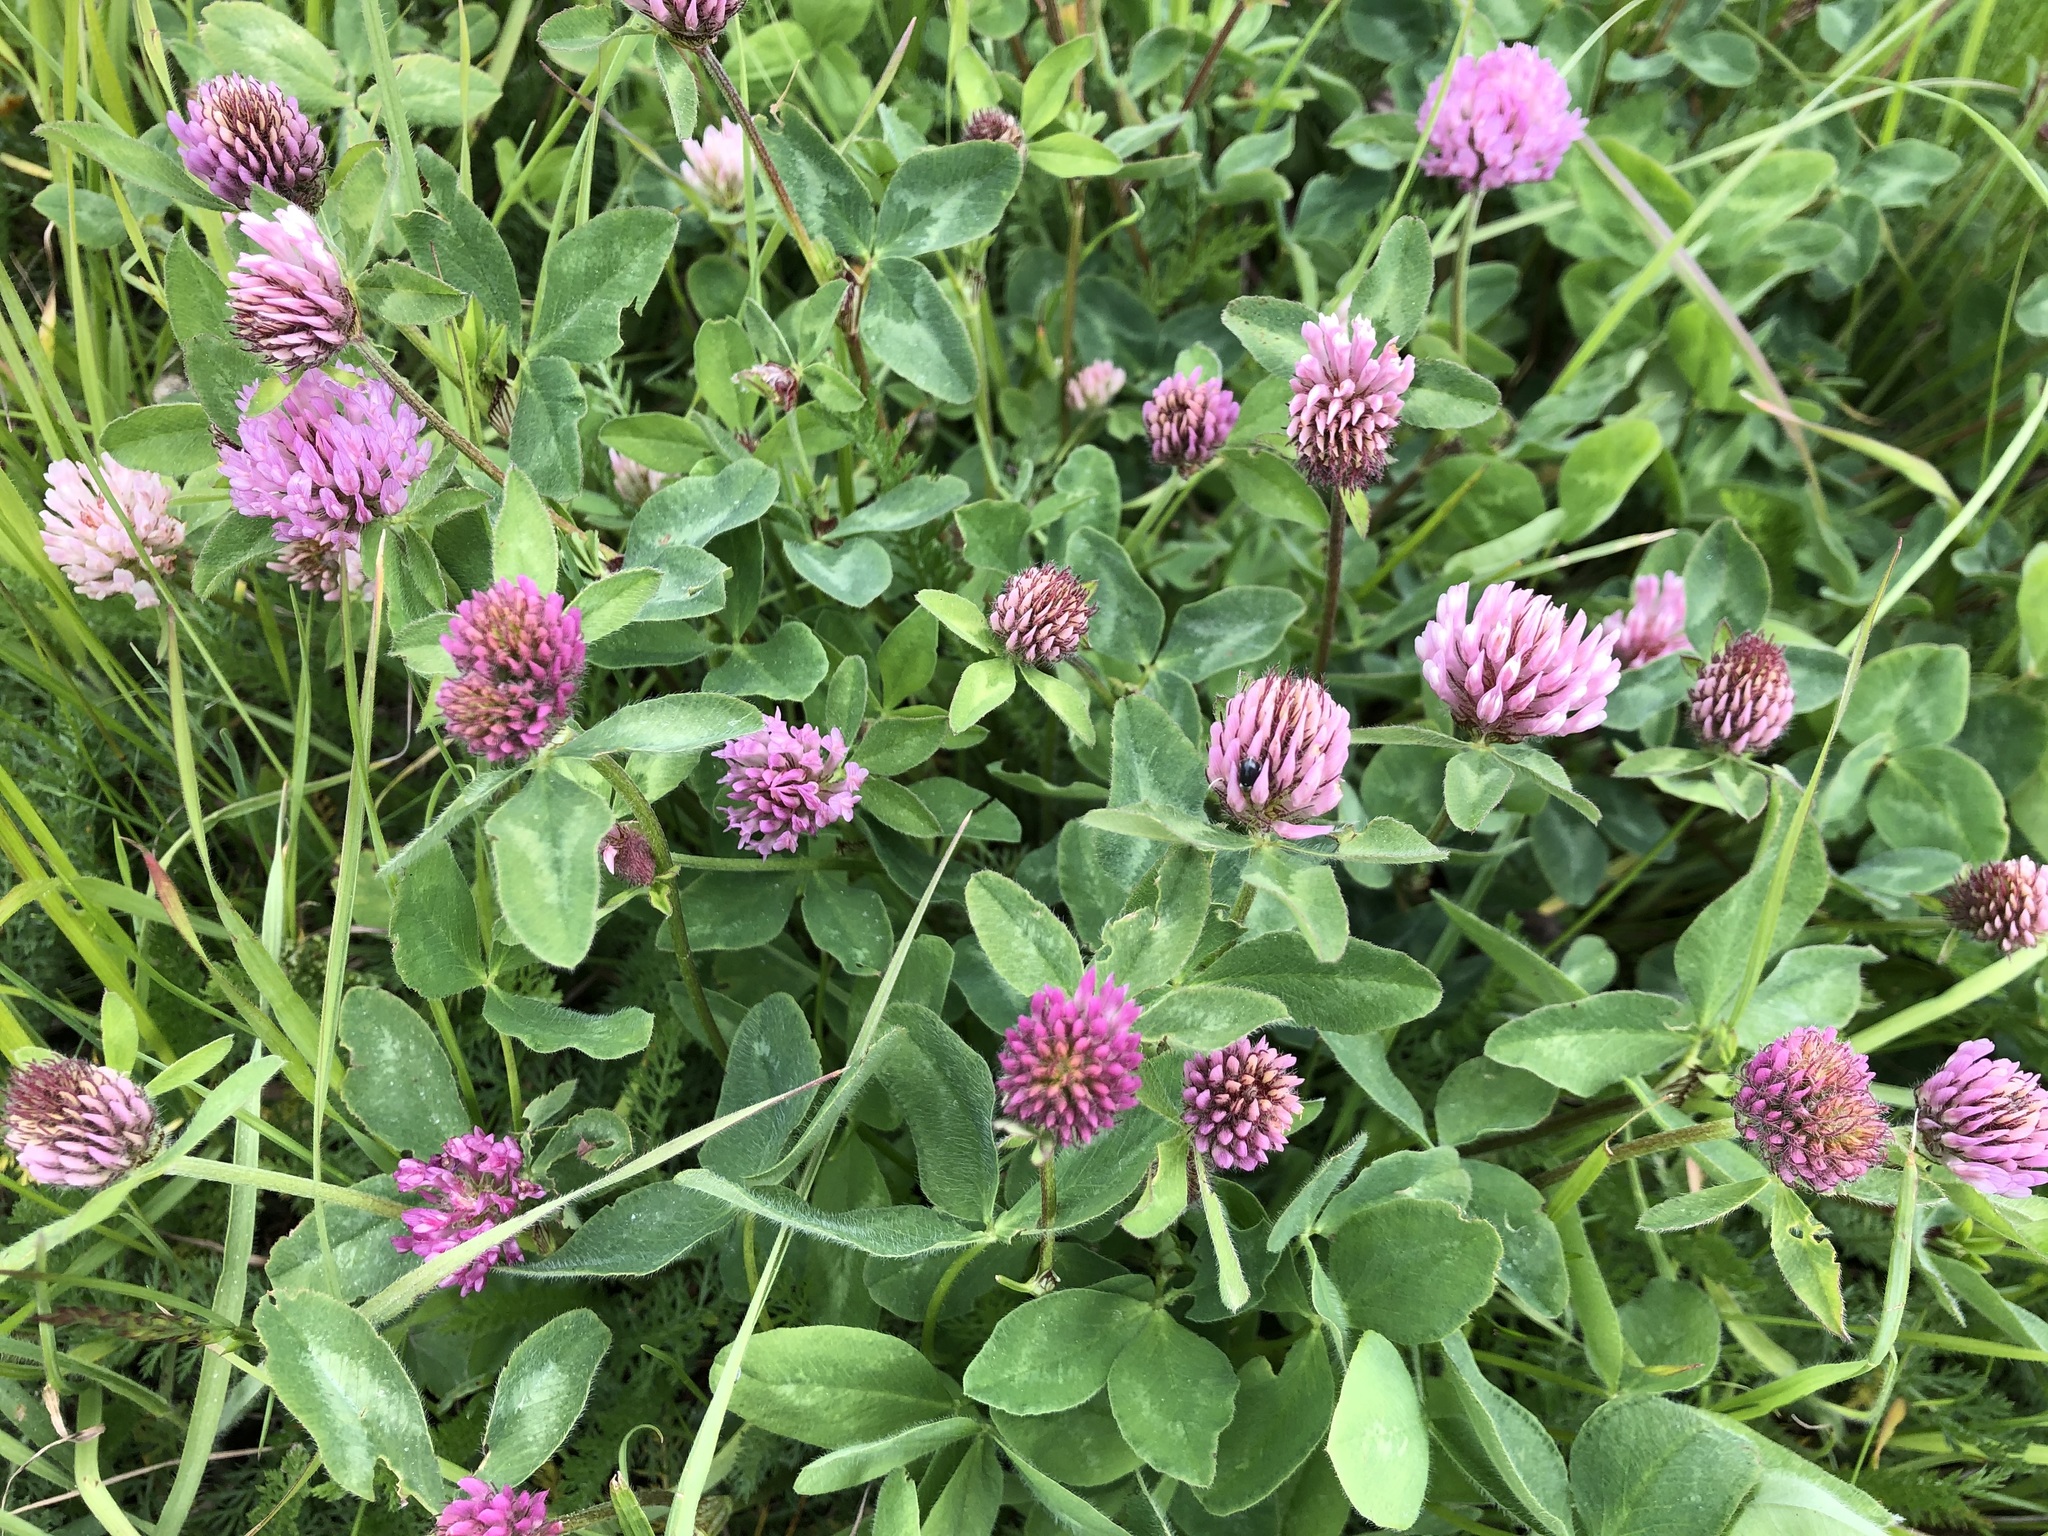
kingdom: Plantae
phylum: Tracheophyta
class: Magnoliopsida
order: Fabales
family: Fabaceae
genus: Trifolium
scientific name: Trifolium pratense
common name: Red clover
